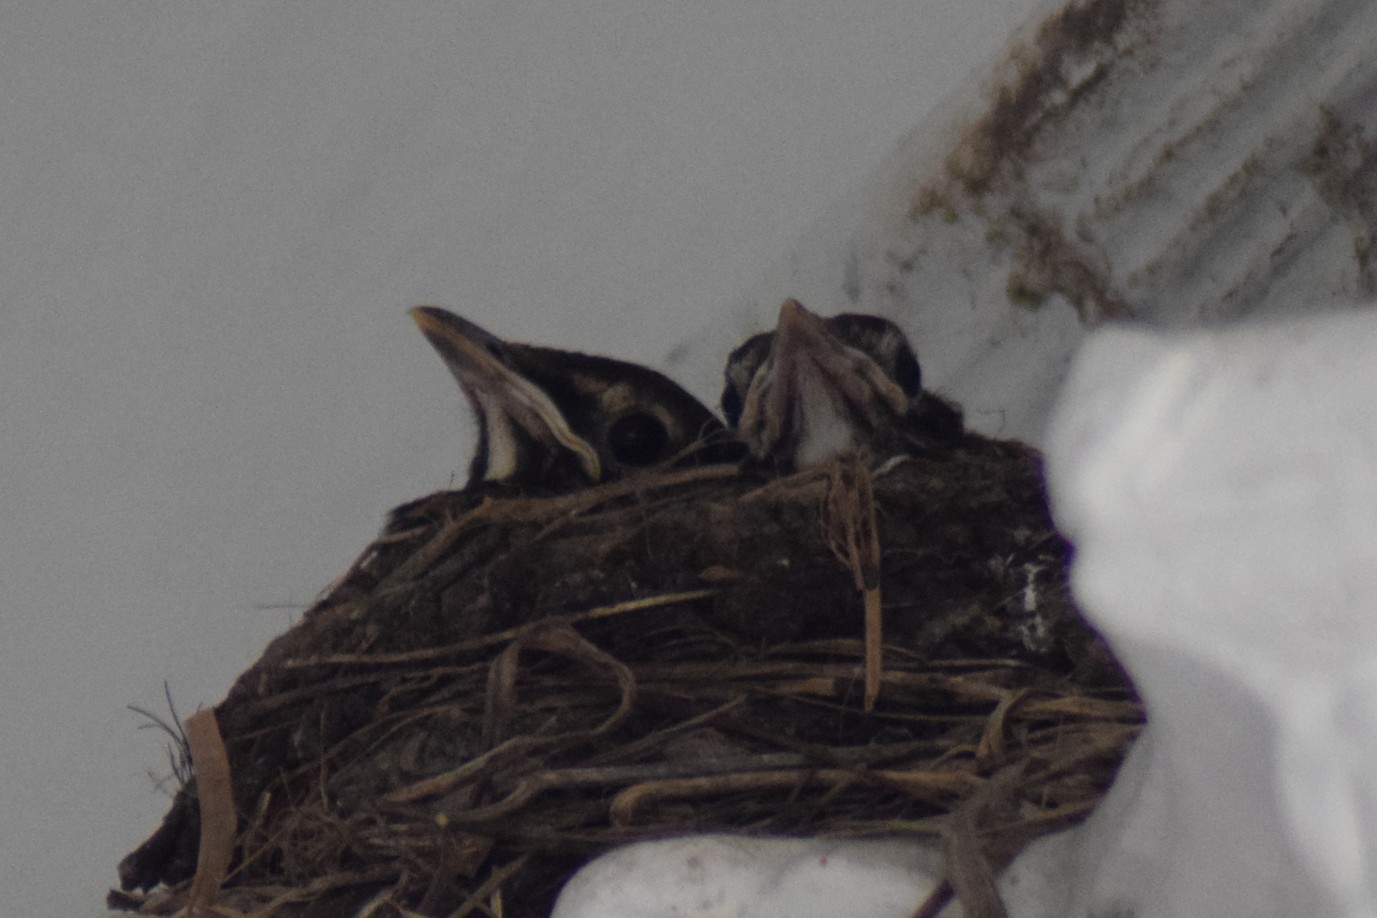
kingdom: Animalia
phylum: Chordata
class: Aves
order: Passeriformes
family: Turdidae
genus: Turdus
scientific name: Turdus migratorius
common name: American robin
